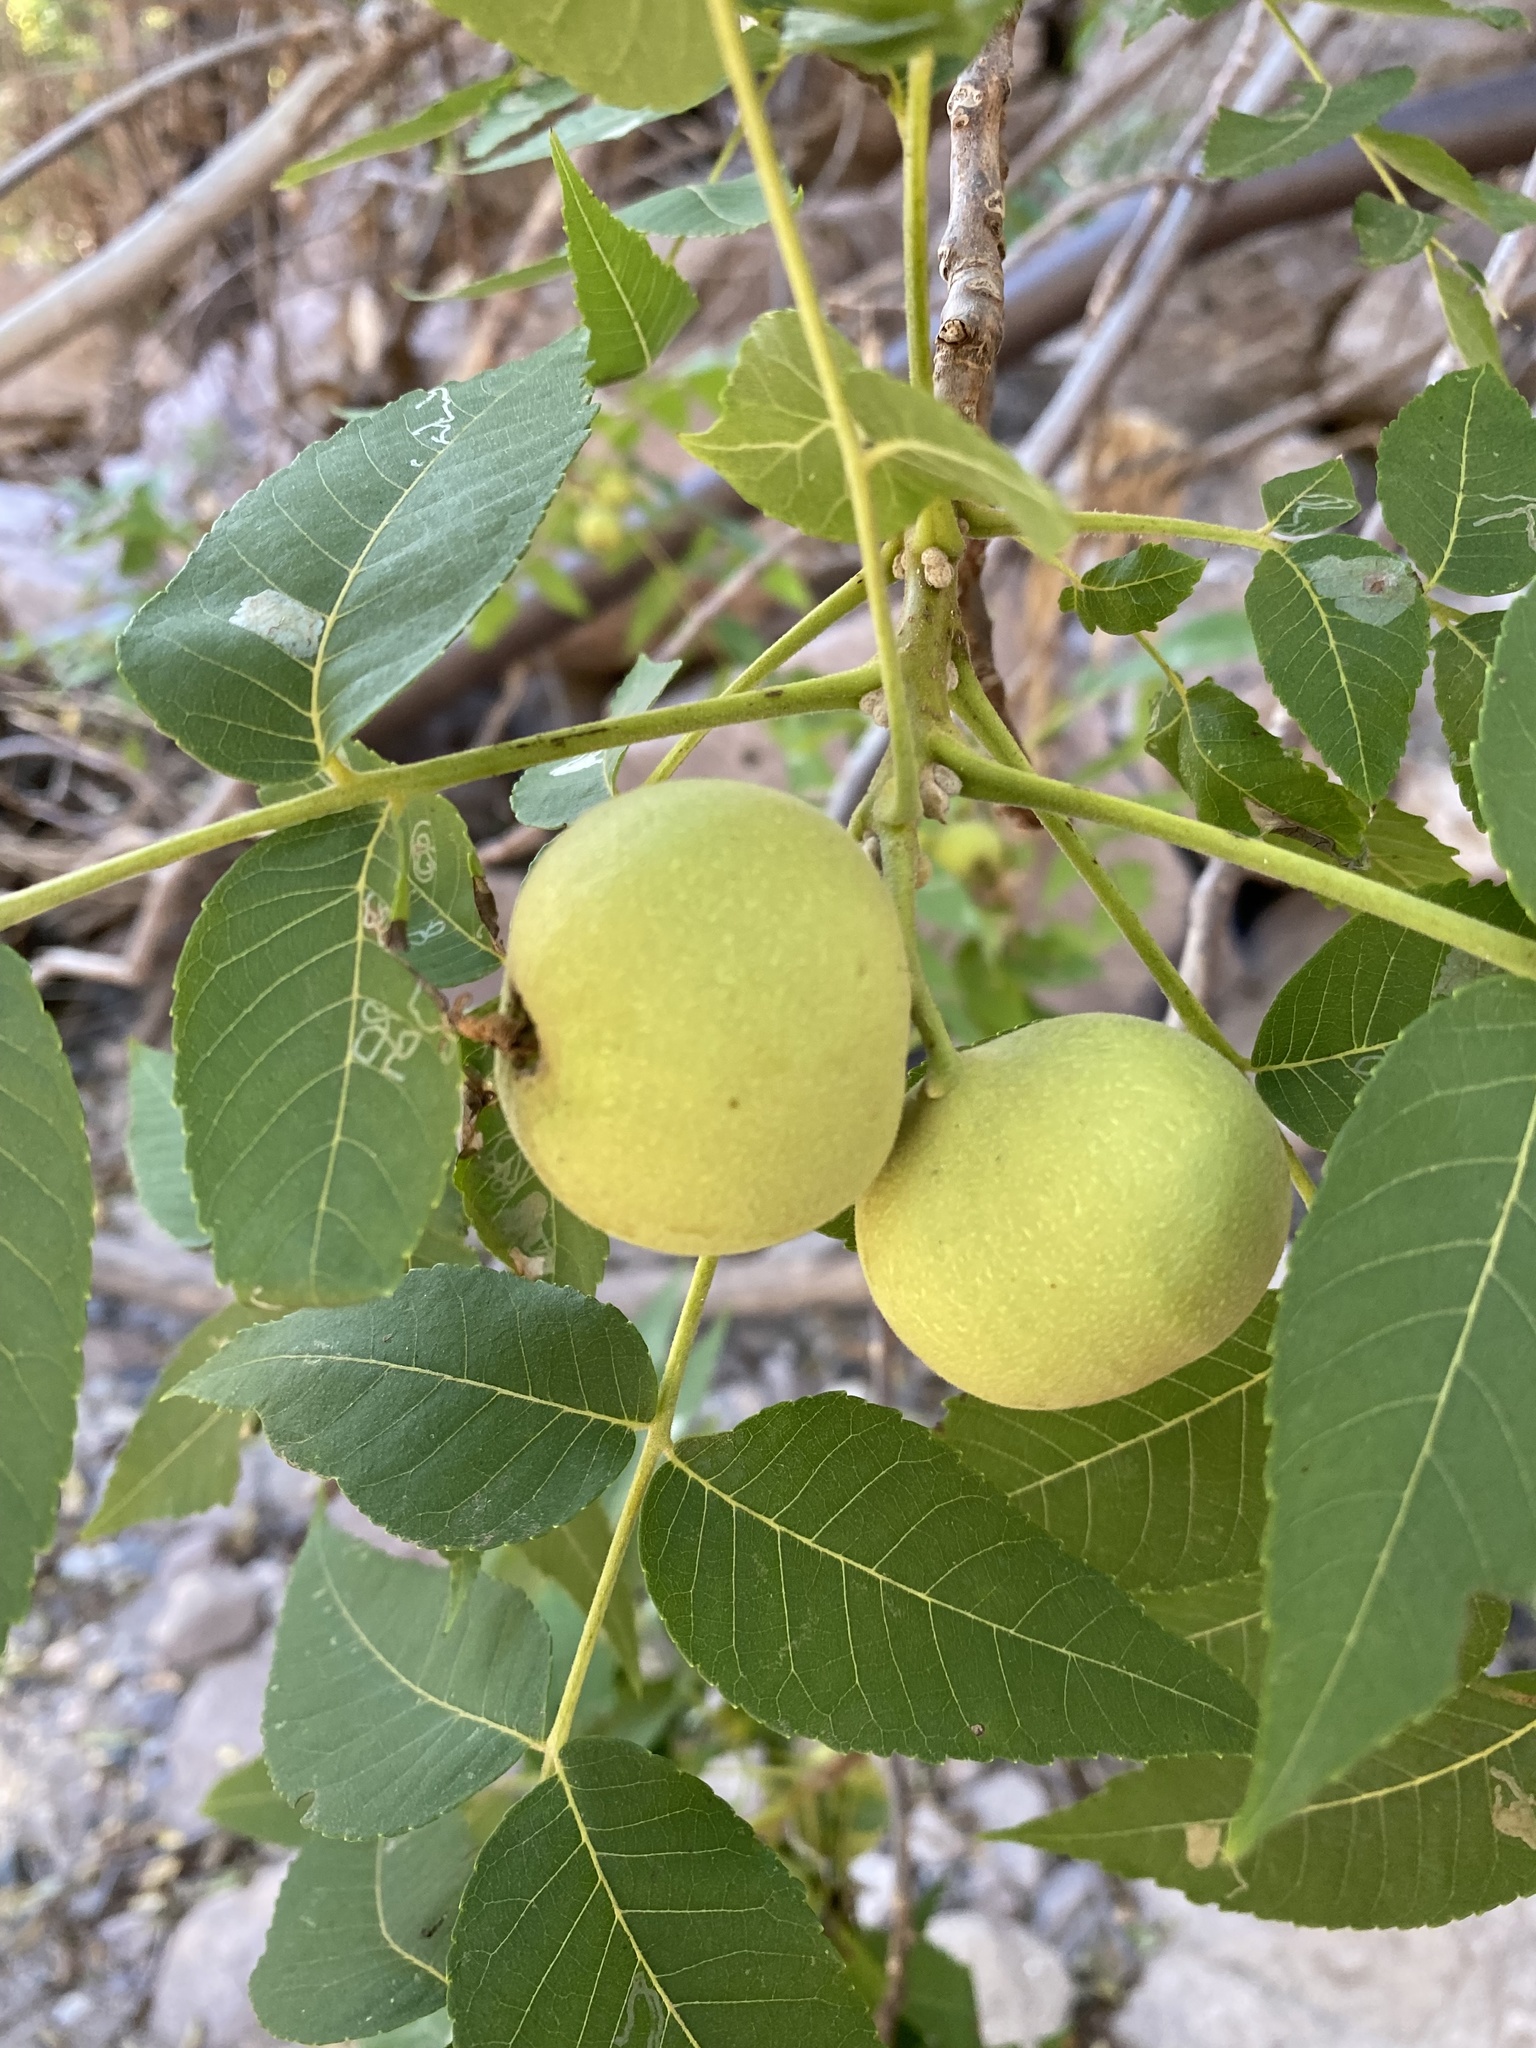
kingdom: Plantae
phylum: Tracheophyta
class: Magnoliopsida
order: Fagales
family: Juglandaceae
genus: Juglans
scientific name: Juglans major
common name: Arizona walnut
